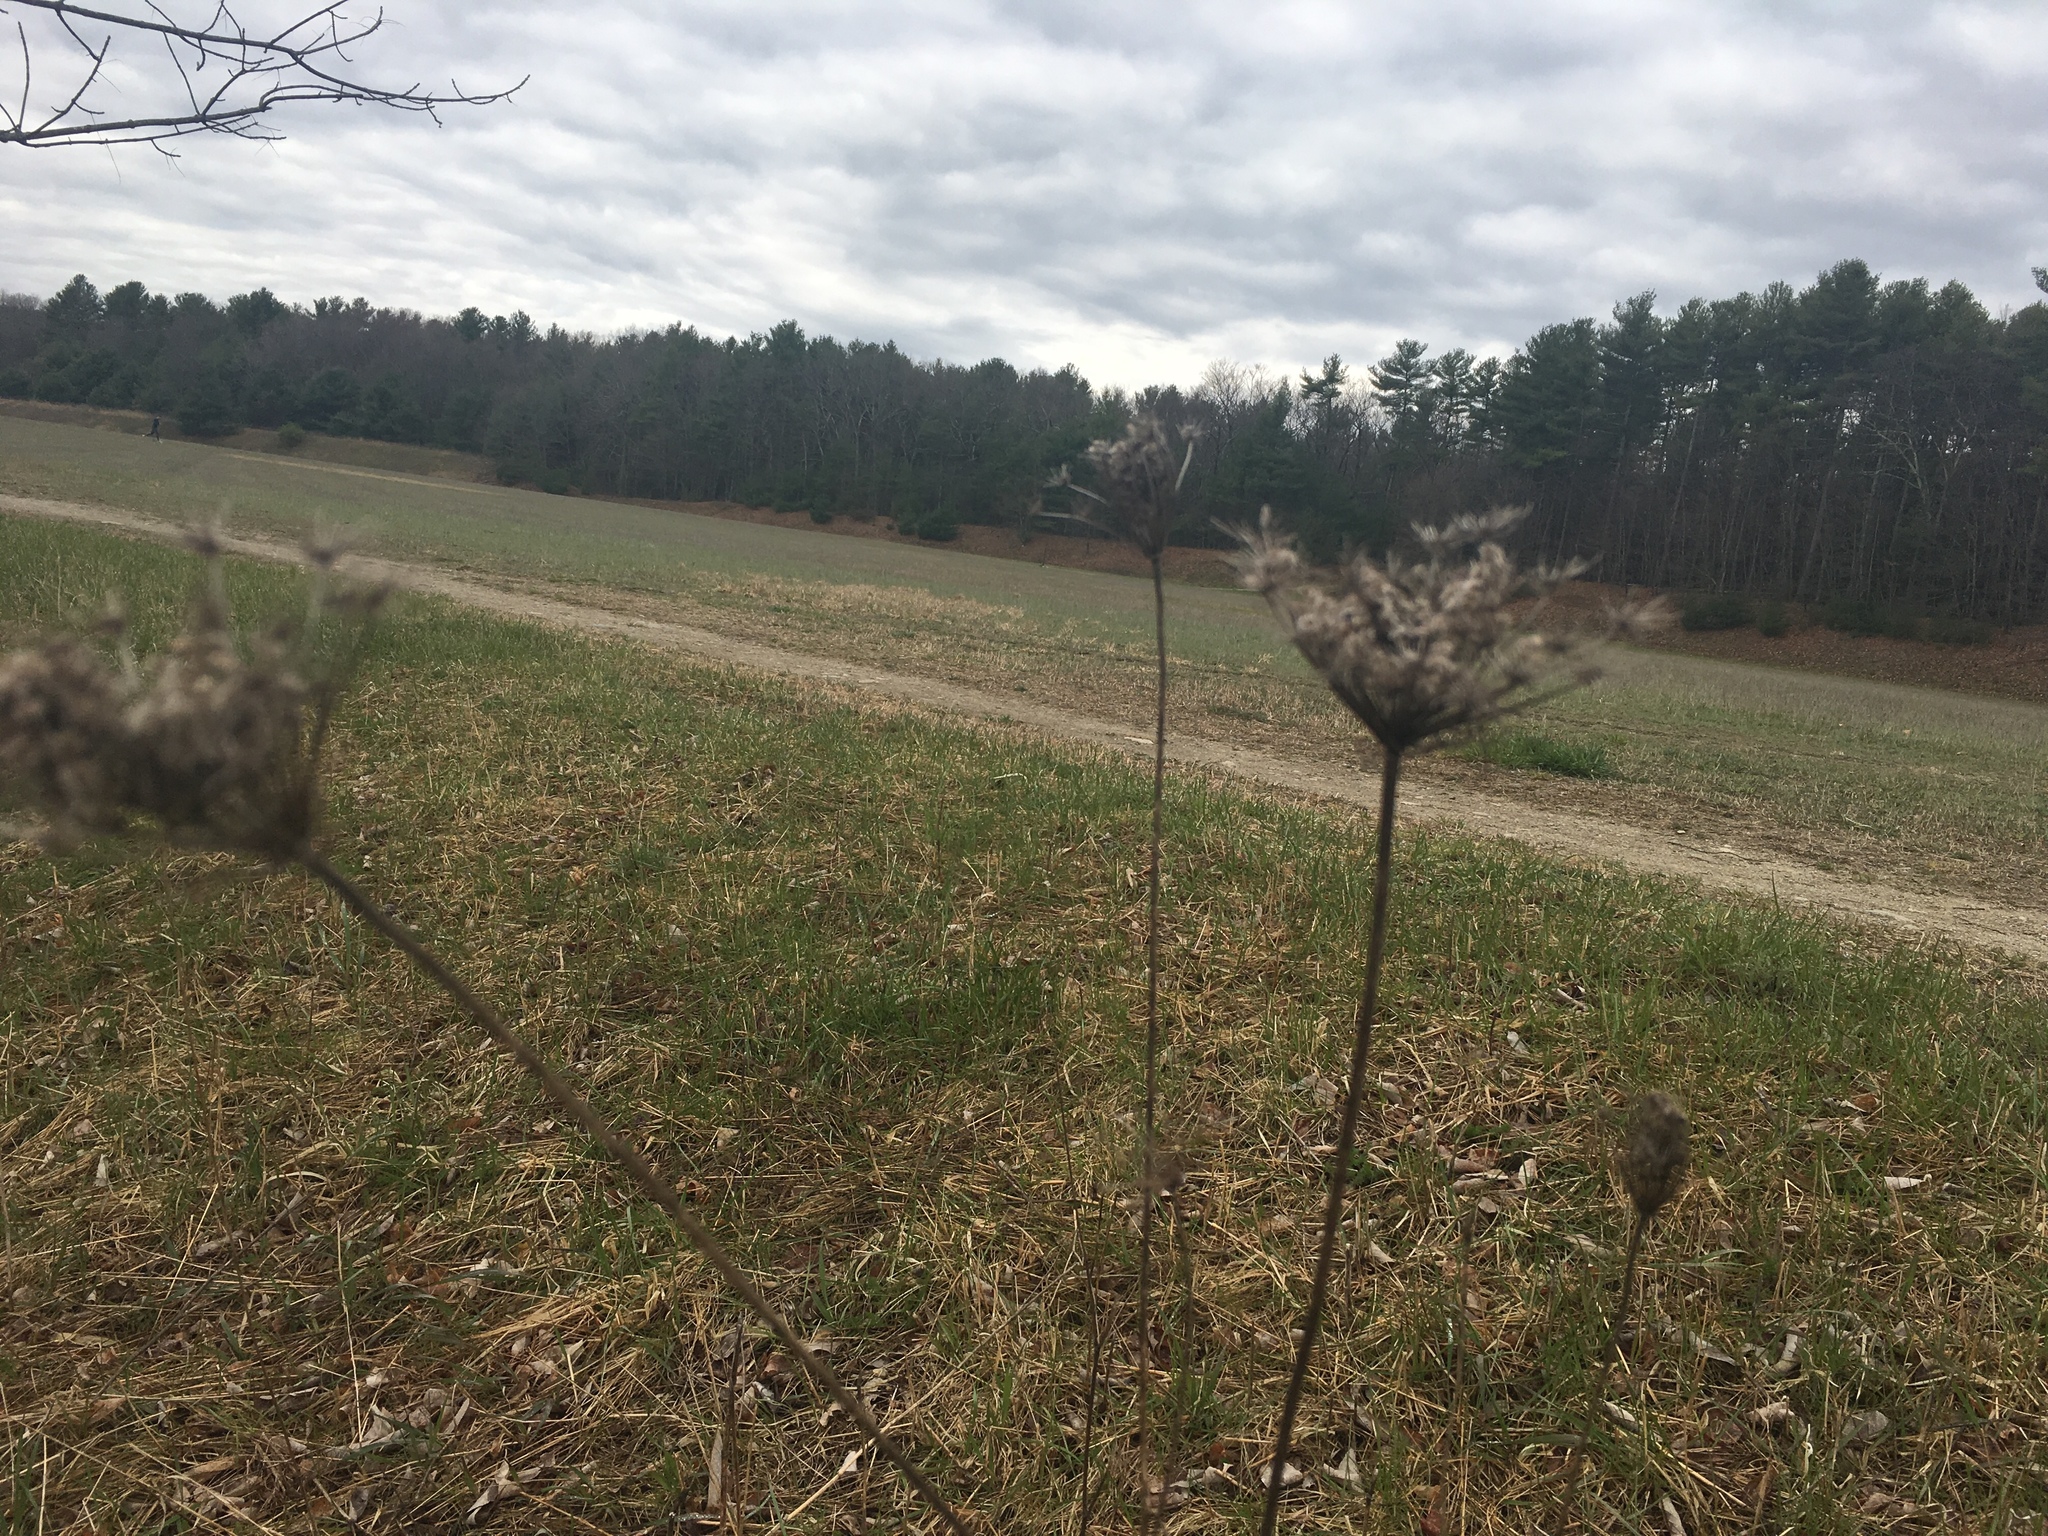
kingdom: Plantae
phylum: Tracheophyta
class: Magnoliopsida
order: Apiales
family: Apiaceae
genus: Daucus
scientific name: Daucus carota
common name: Wild carrot
